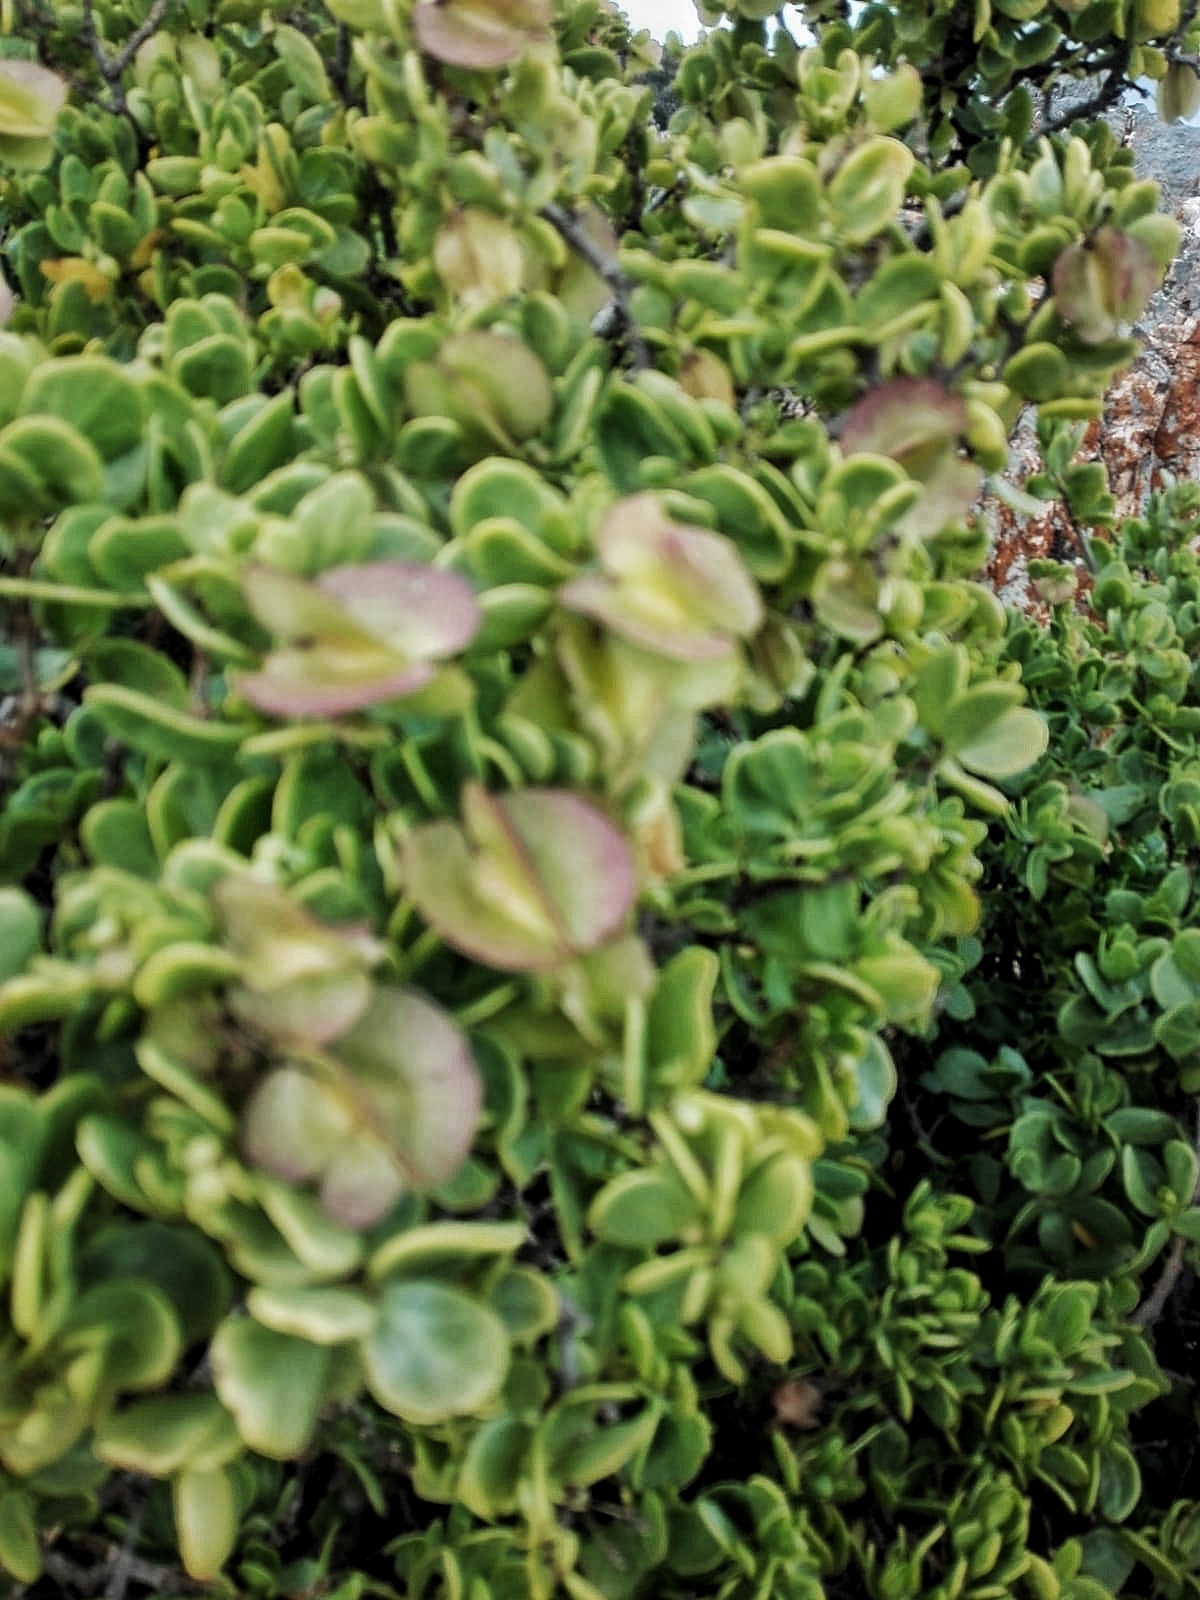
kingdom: Plantae
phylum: Tracheophyta
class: Magnoliopsida
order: Zygophyllales
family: Zygophyllaceae
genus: Roepera
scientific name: Roepera morgsana
